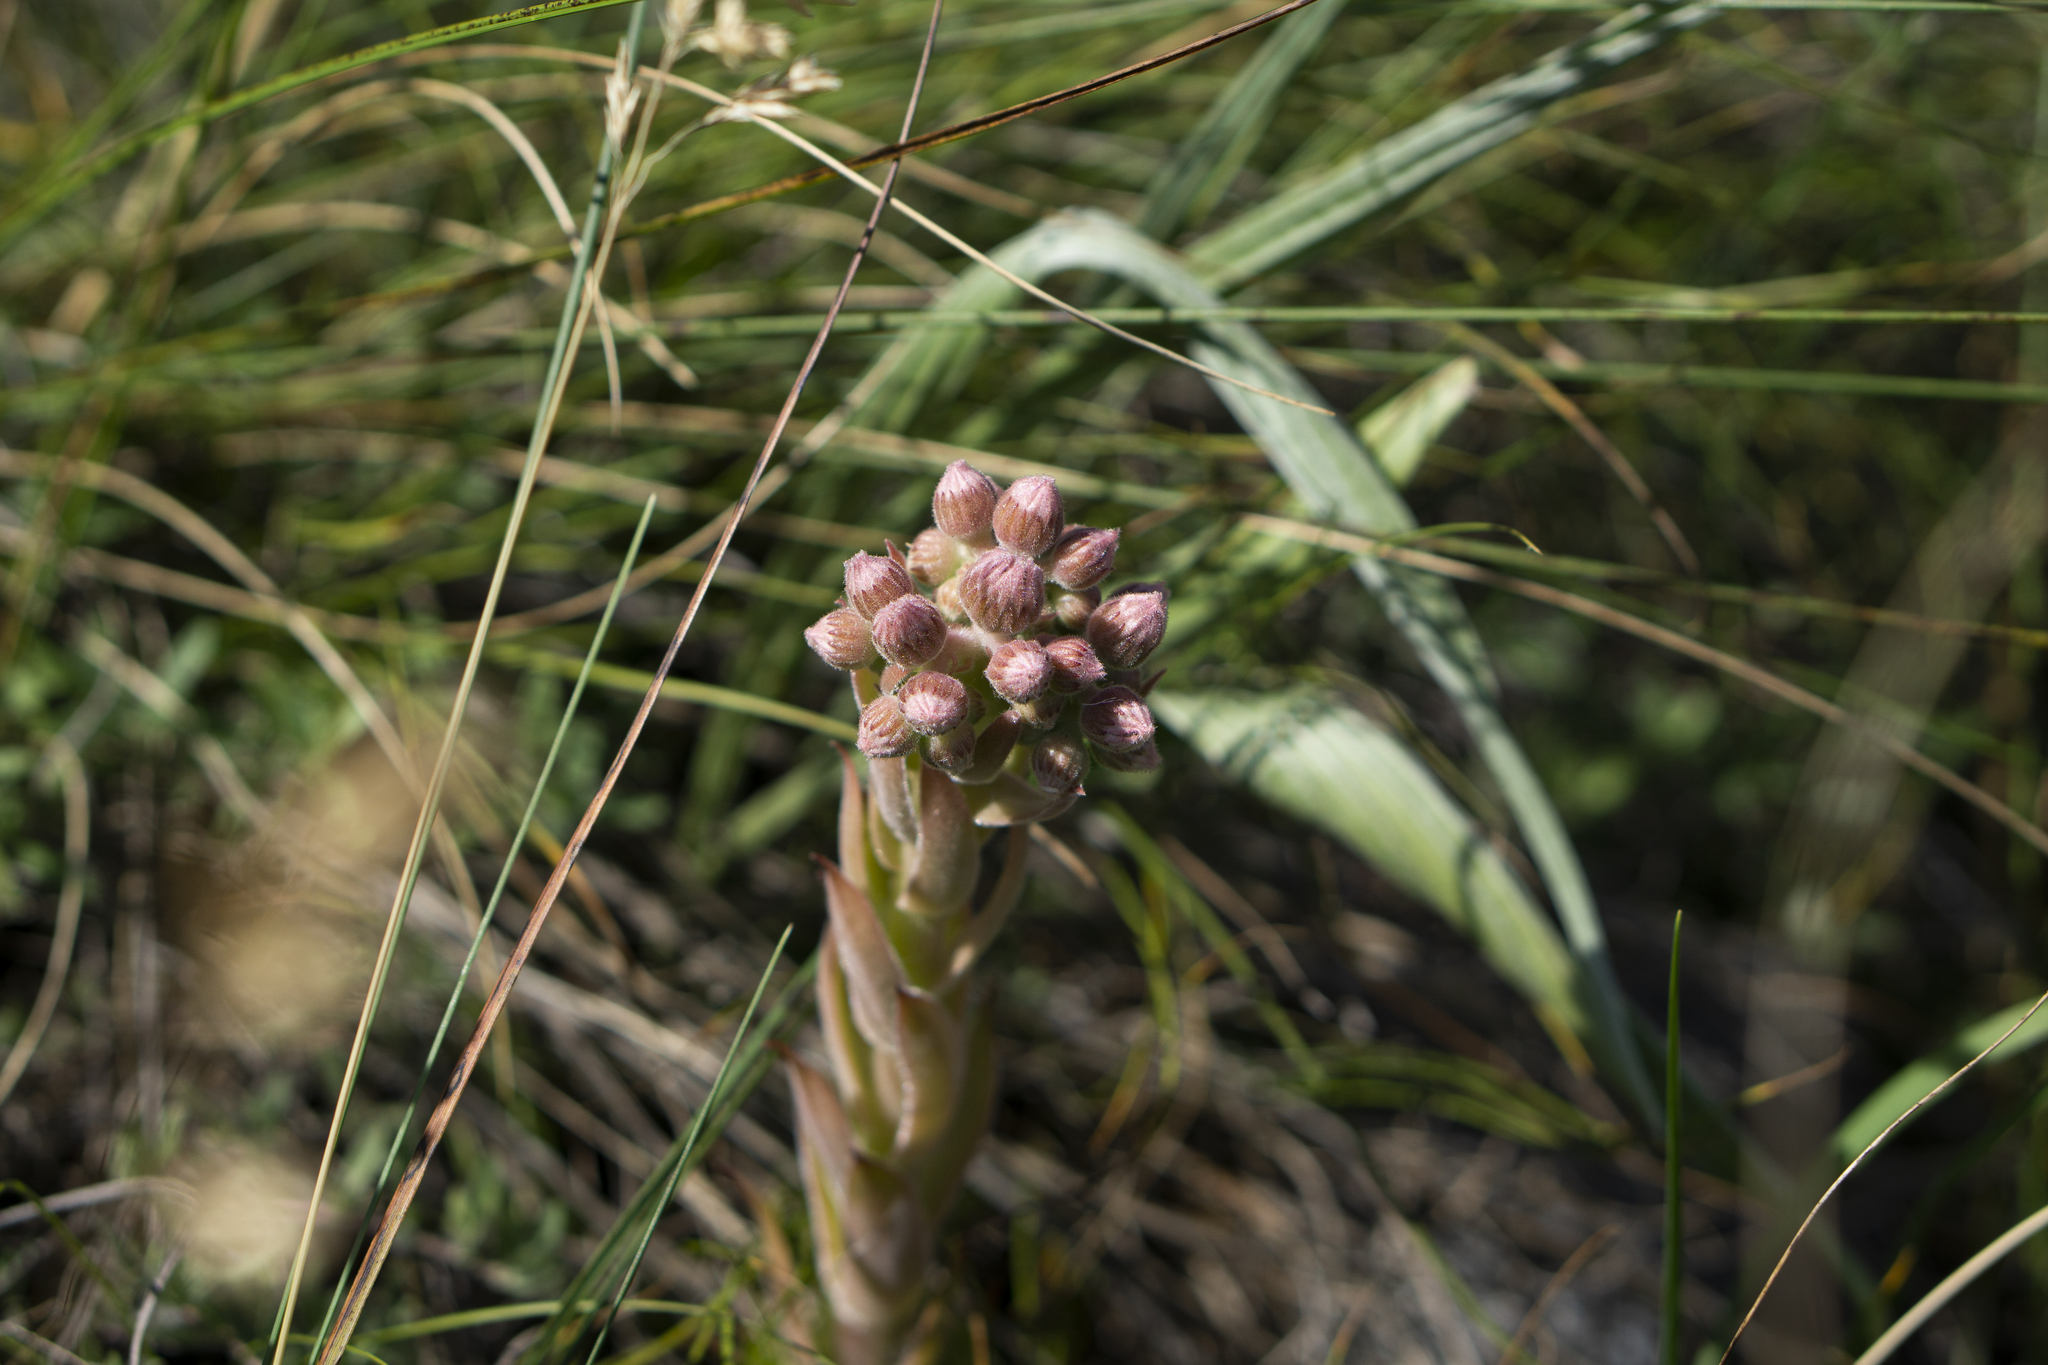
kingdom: Plantae
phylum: Tracheophyta
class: Magnoliopsida
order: Saxifragales
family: Crassulaceae
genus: Sempervivum
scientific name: Sempervivum marmoreum
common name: Houseleek
